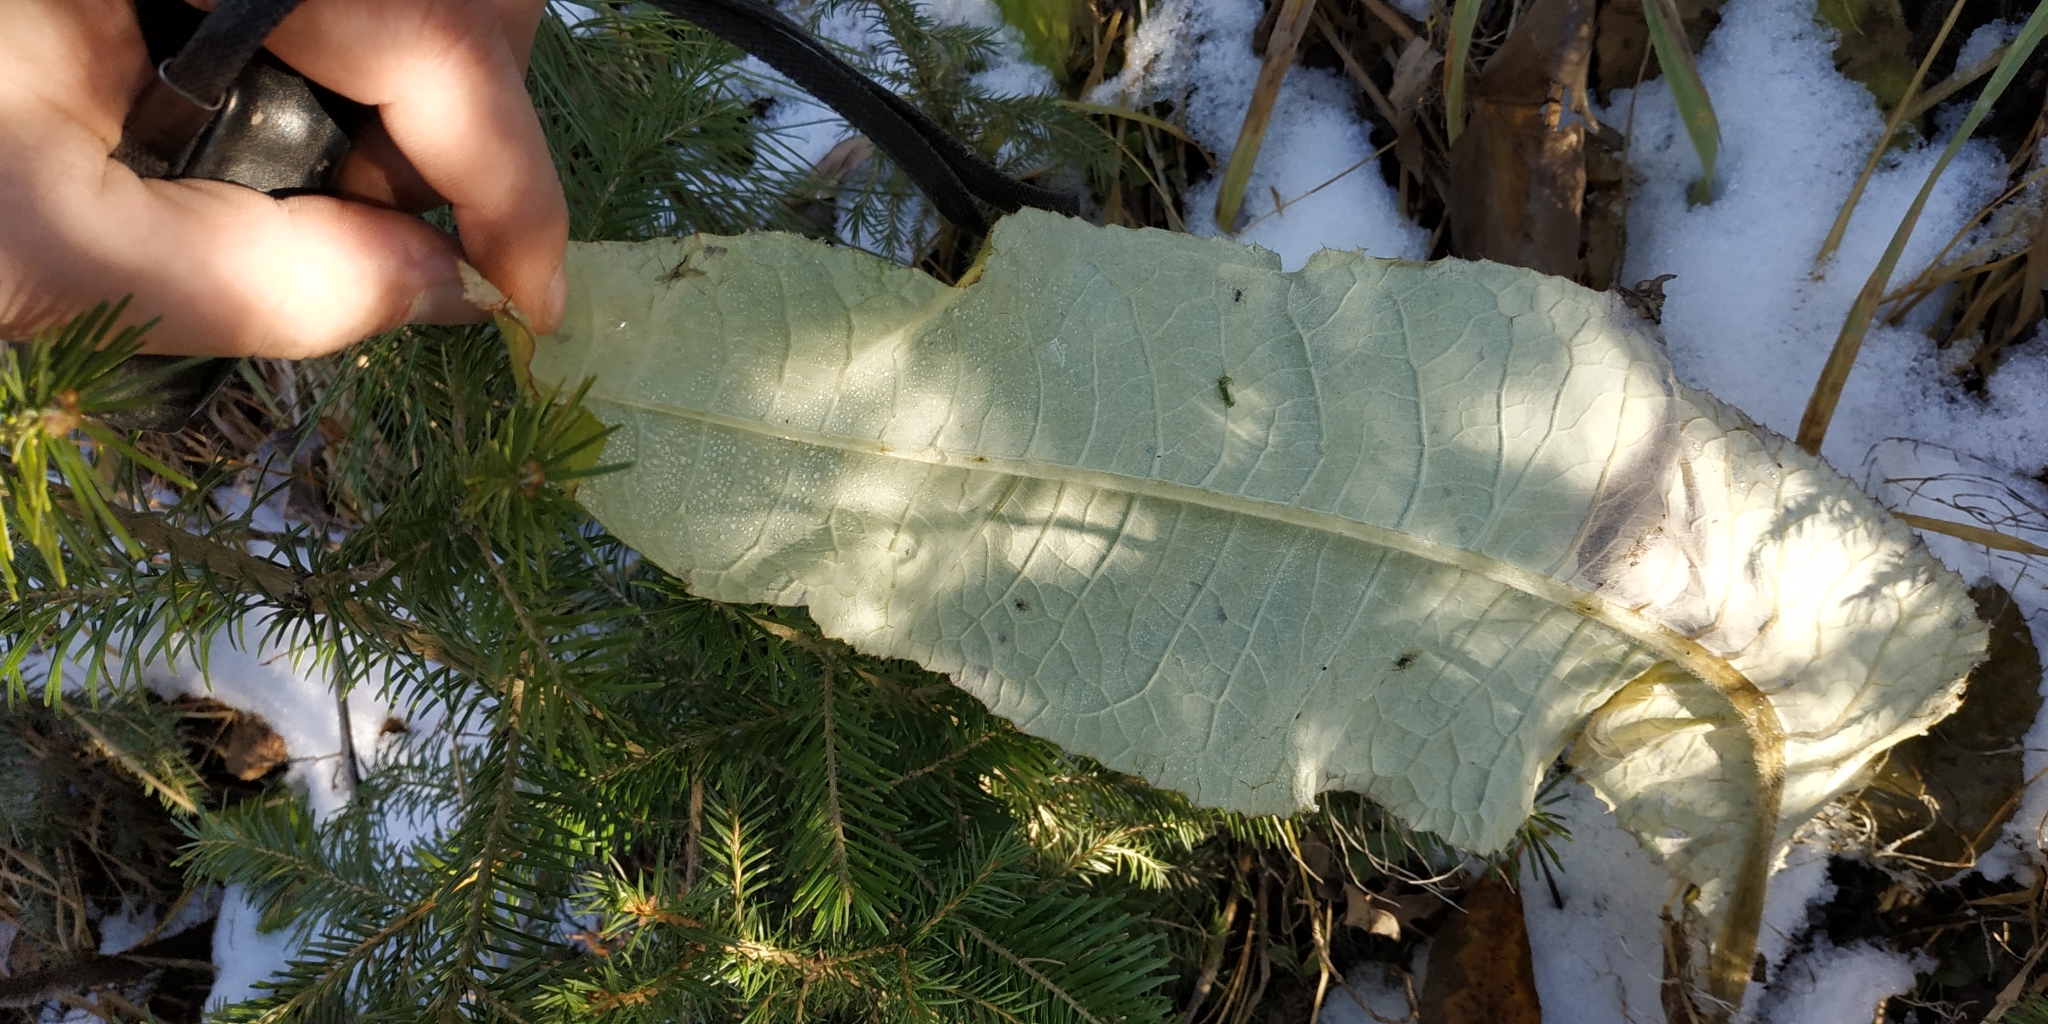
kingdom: Plantae
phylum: Tracheophyta
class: Magnoliopsida
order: Asterales
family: Asteraceae
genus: Cirsium
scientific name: Cirsium helenioides
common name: Melancholy thistle
